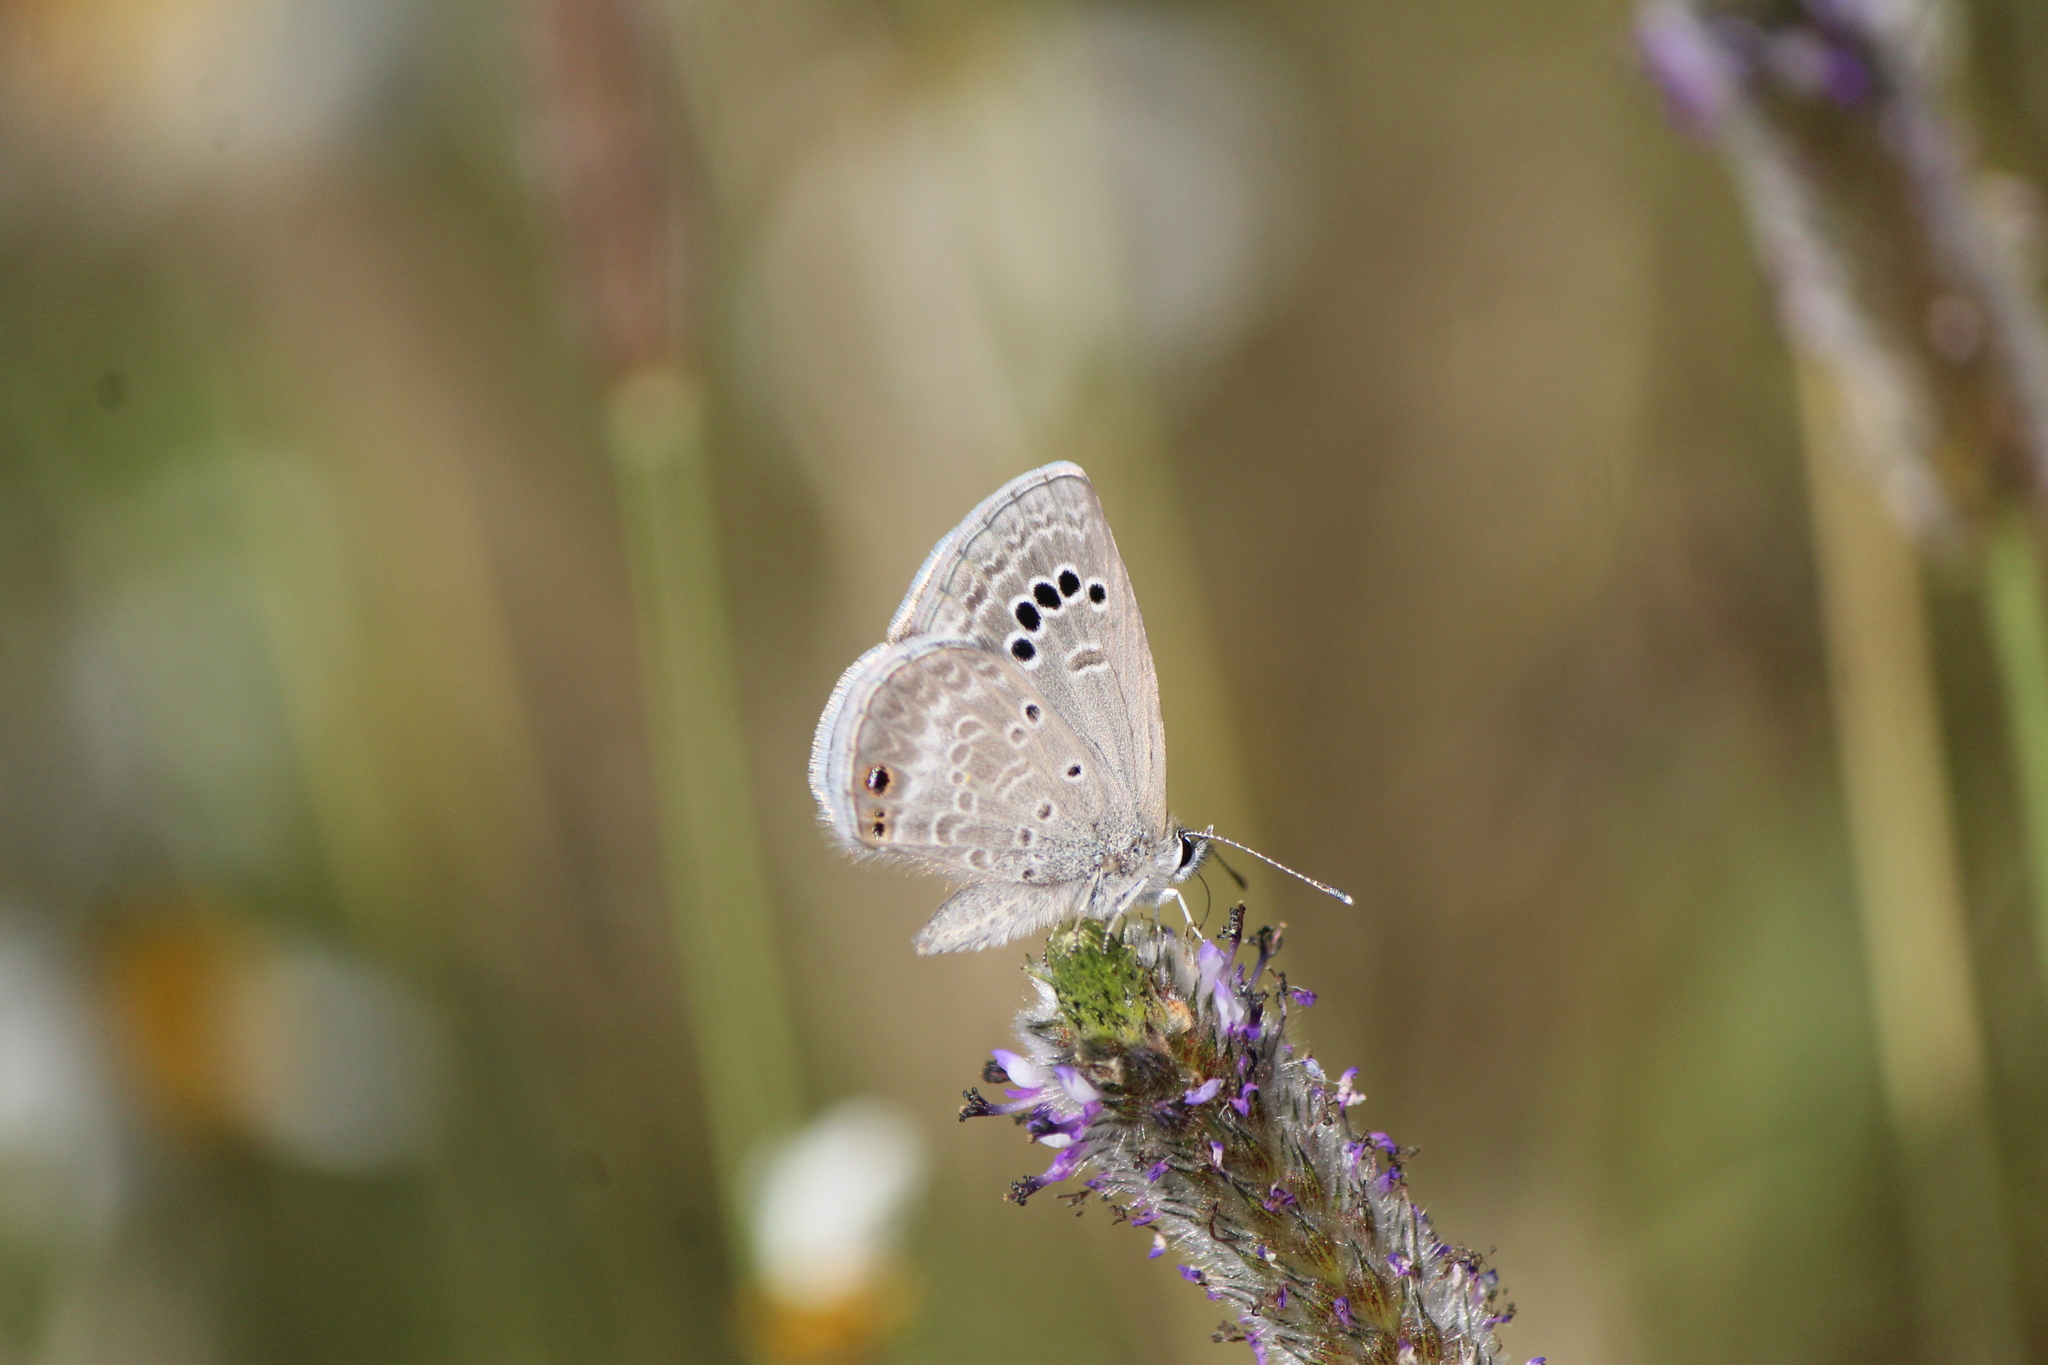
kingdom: Animalia
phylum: Arthropoda
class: Insecta
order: Lepidoptera
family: Lycaenidae
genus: Echinargus
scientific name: Echinargus isola
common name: Reakirt's blue
